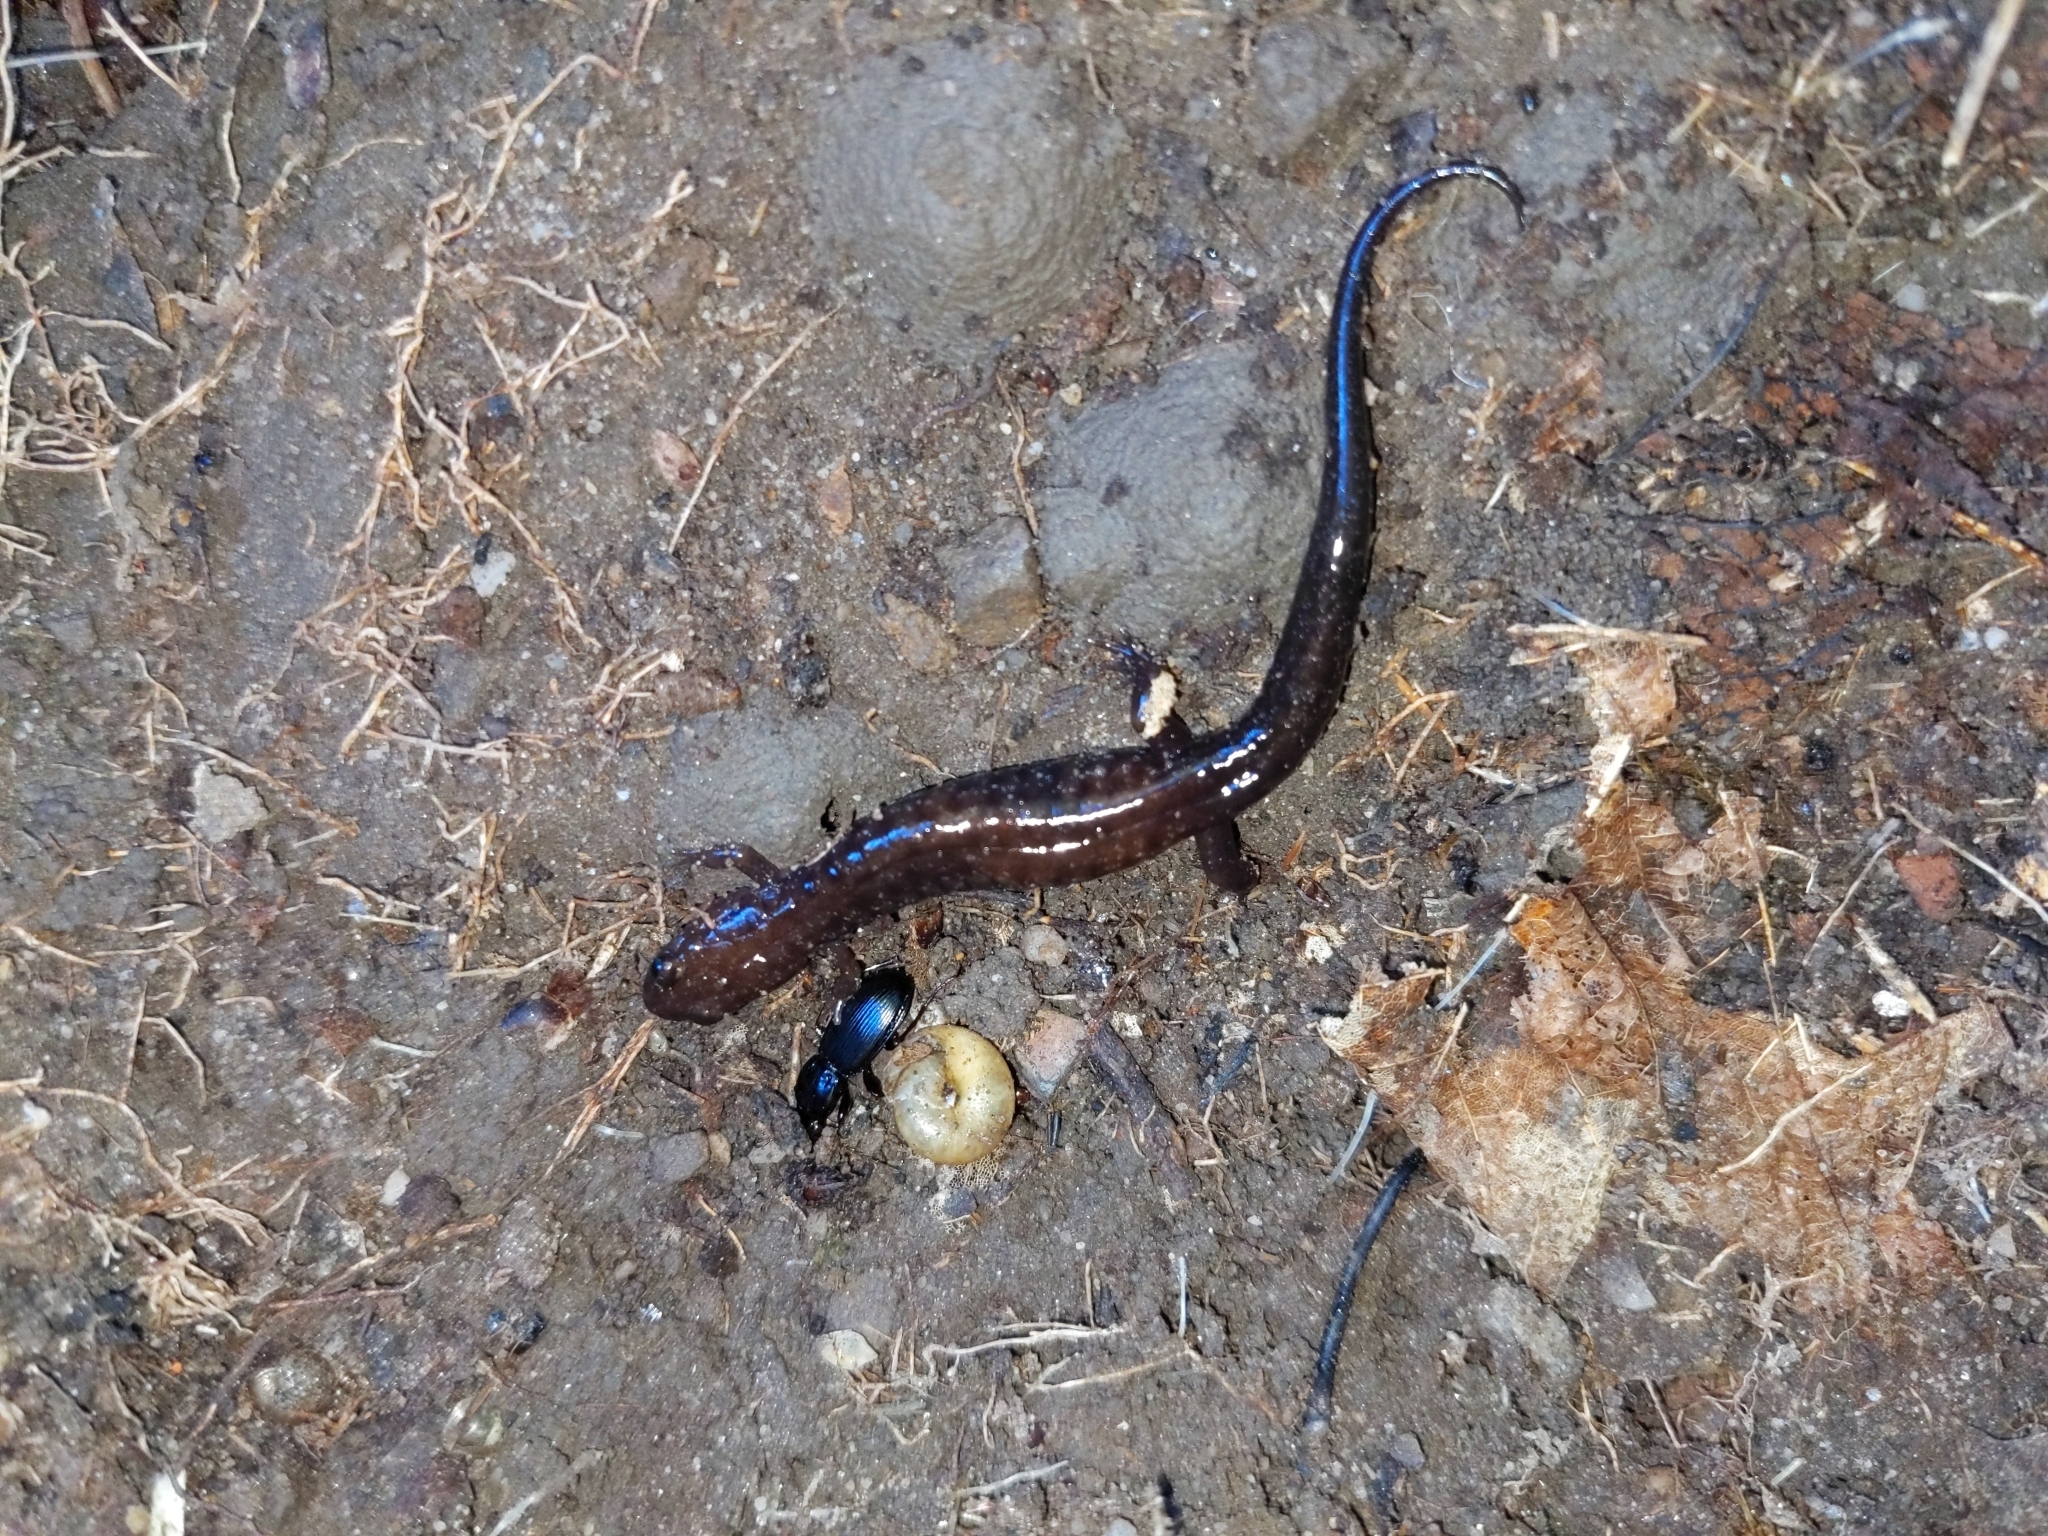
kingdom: Animalia
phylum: Chordata
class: Amphibia
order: Caudata
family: Plethodontidae
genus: Desmognathus
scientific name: Desmognathus ochrophaeus
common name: Allegheny mountain dusky salamander
